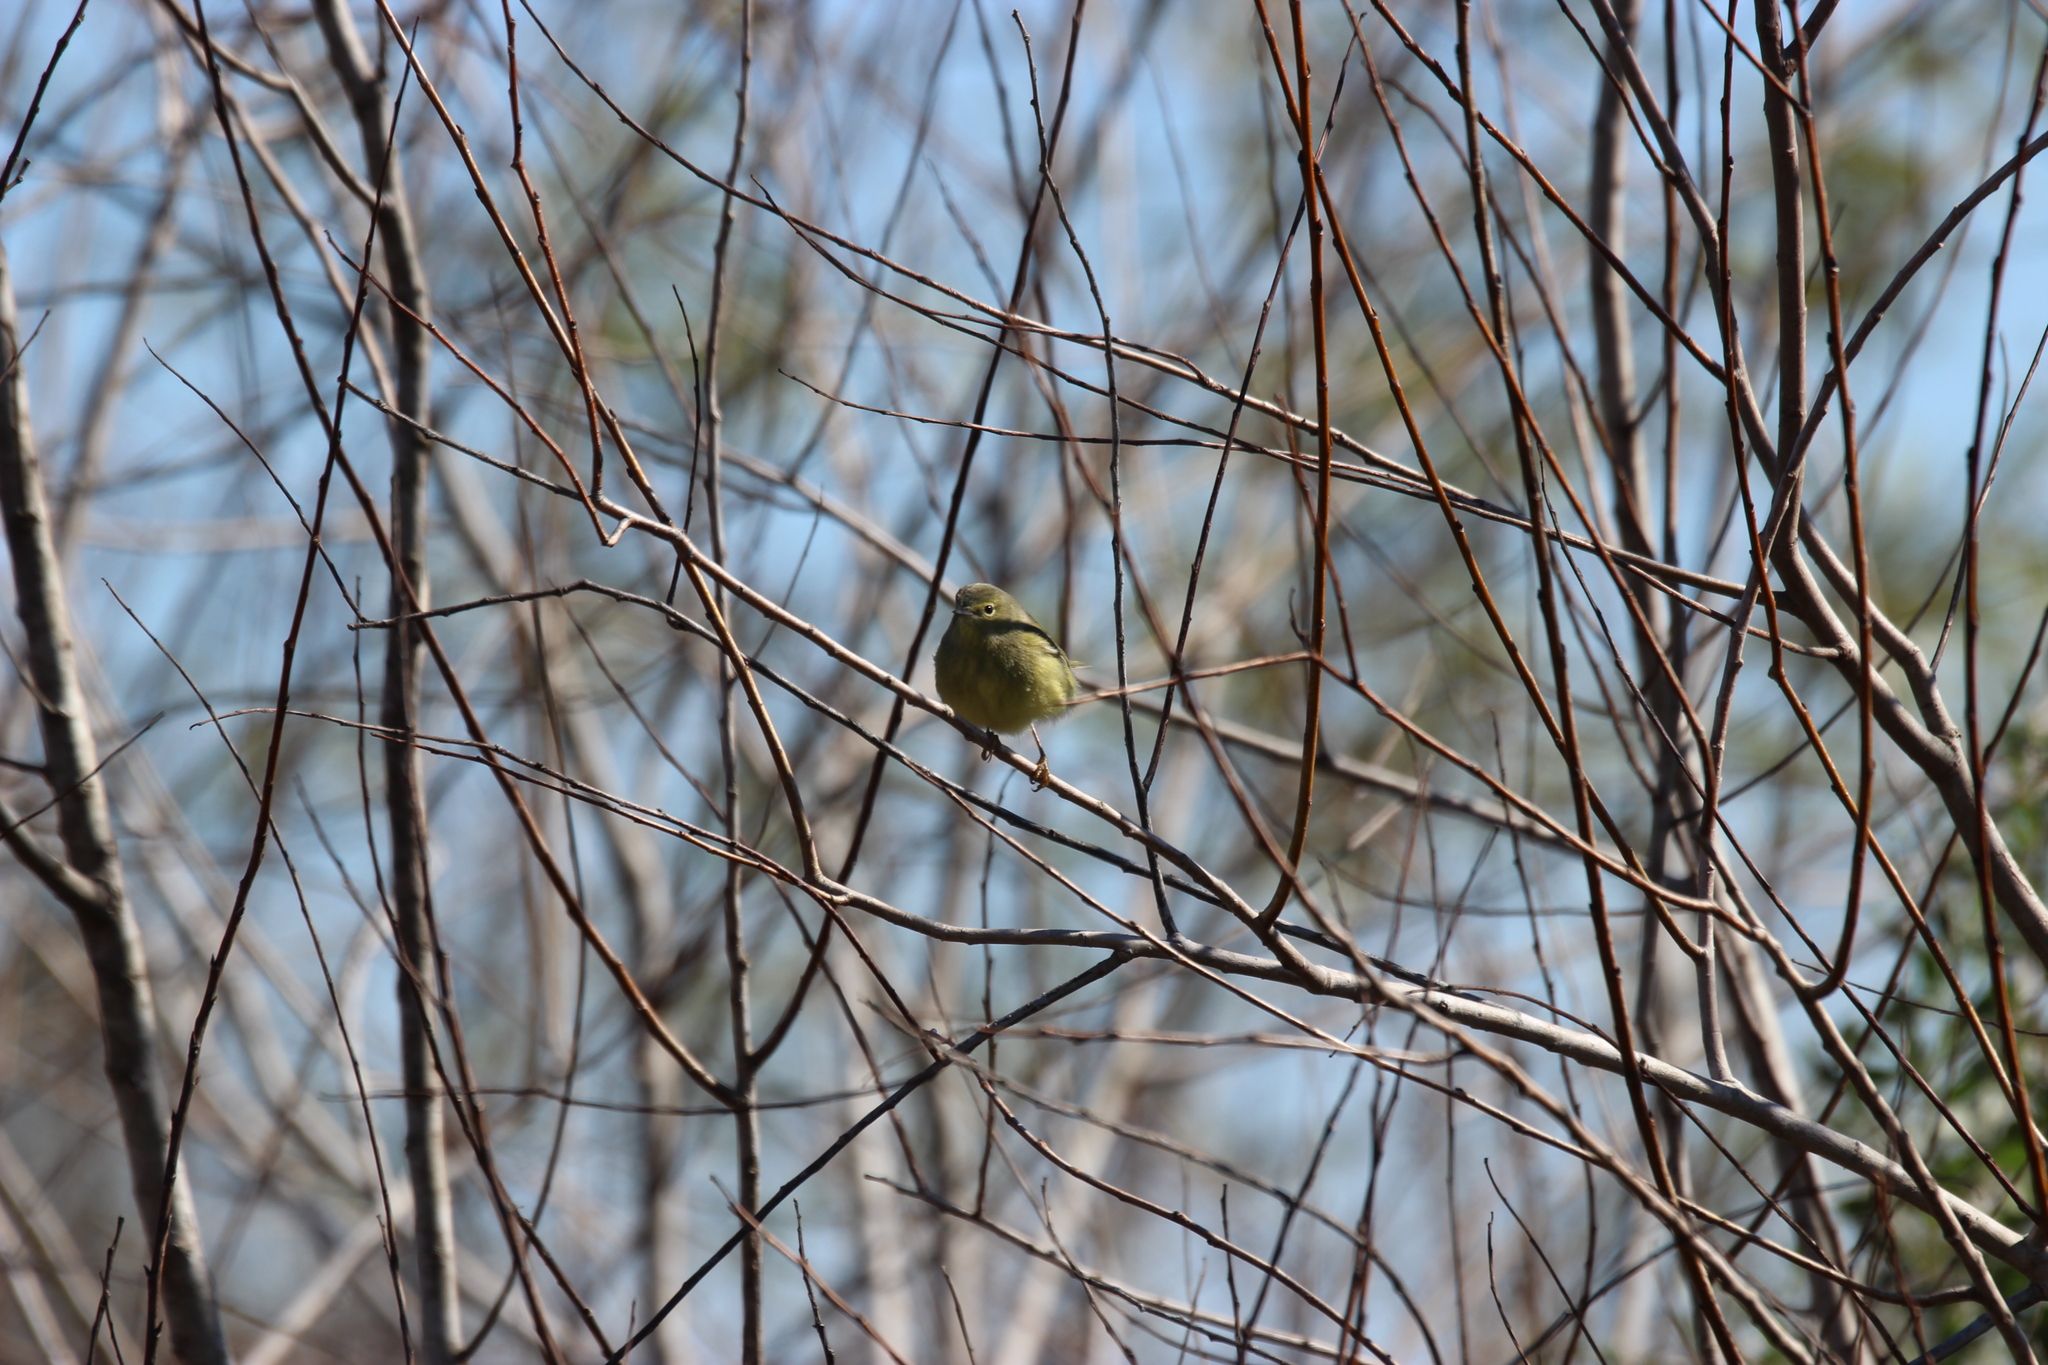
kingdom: Animalia
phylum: Chordata
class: Aves
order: Passeriformes
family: Parulidae
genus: Leiothlypis
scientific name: Leiothlypis celata
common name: Orange-crowned warbler
